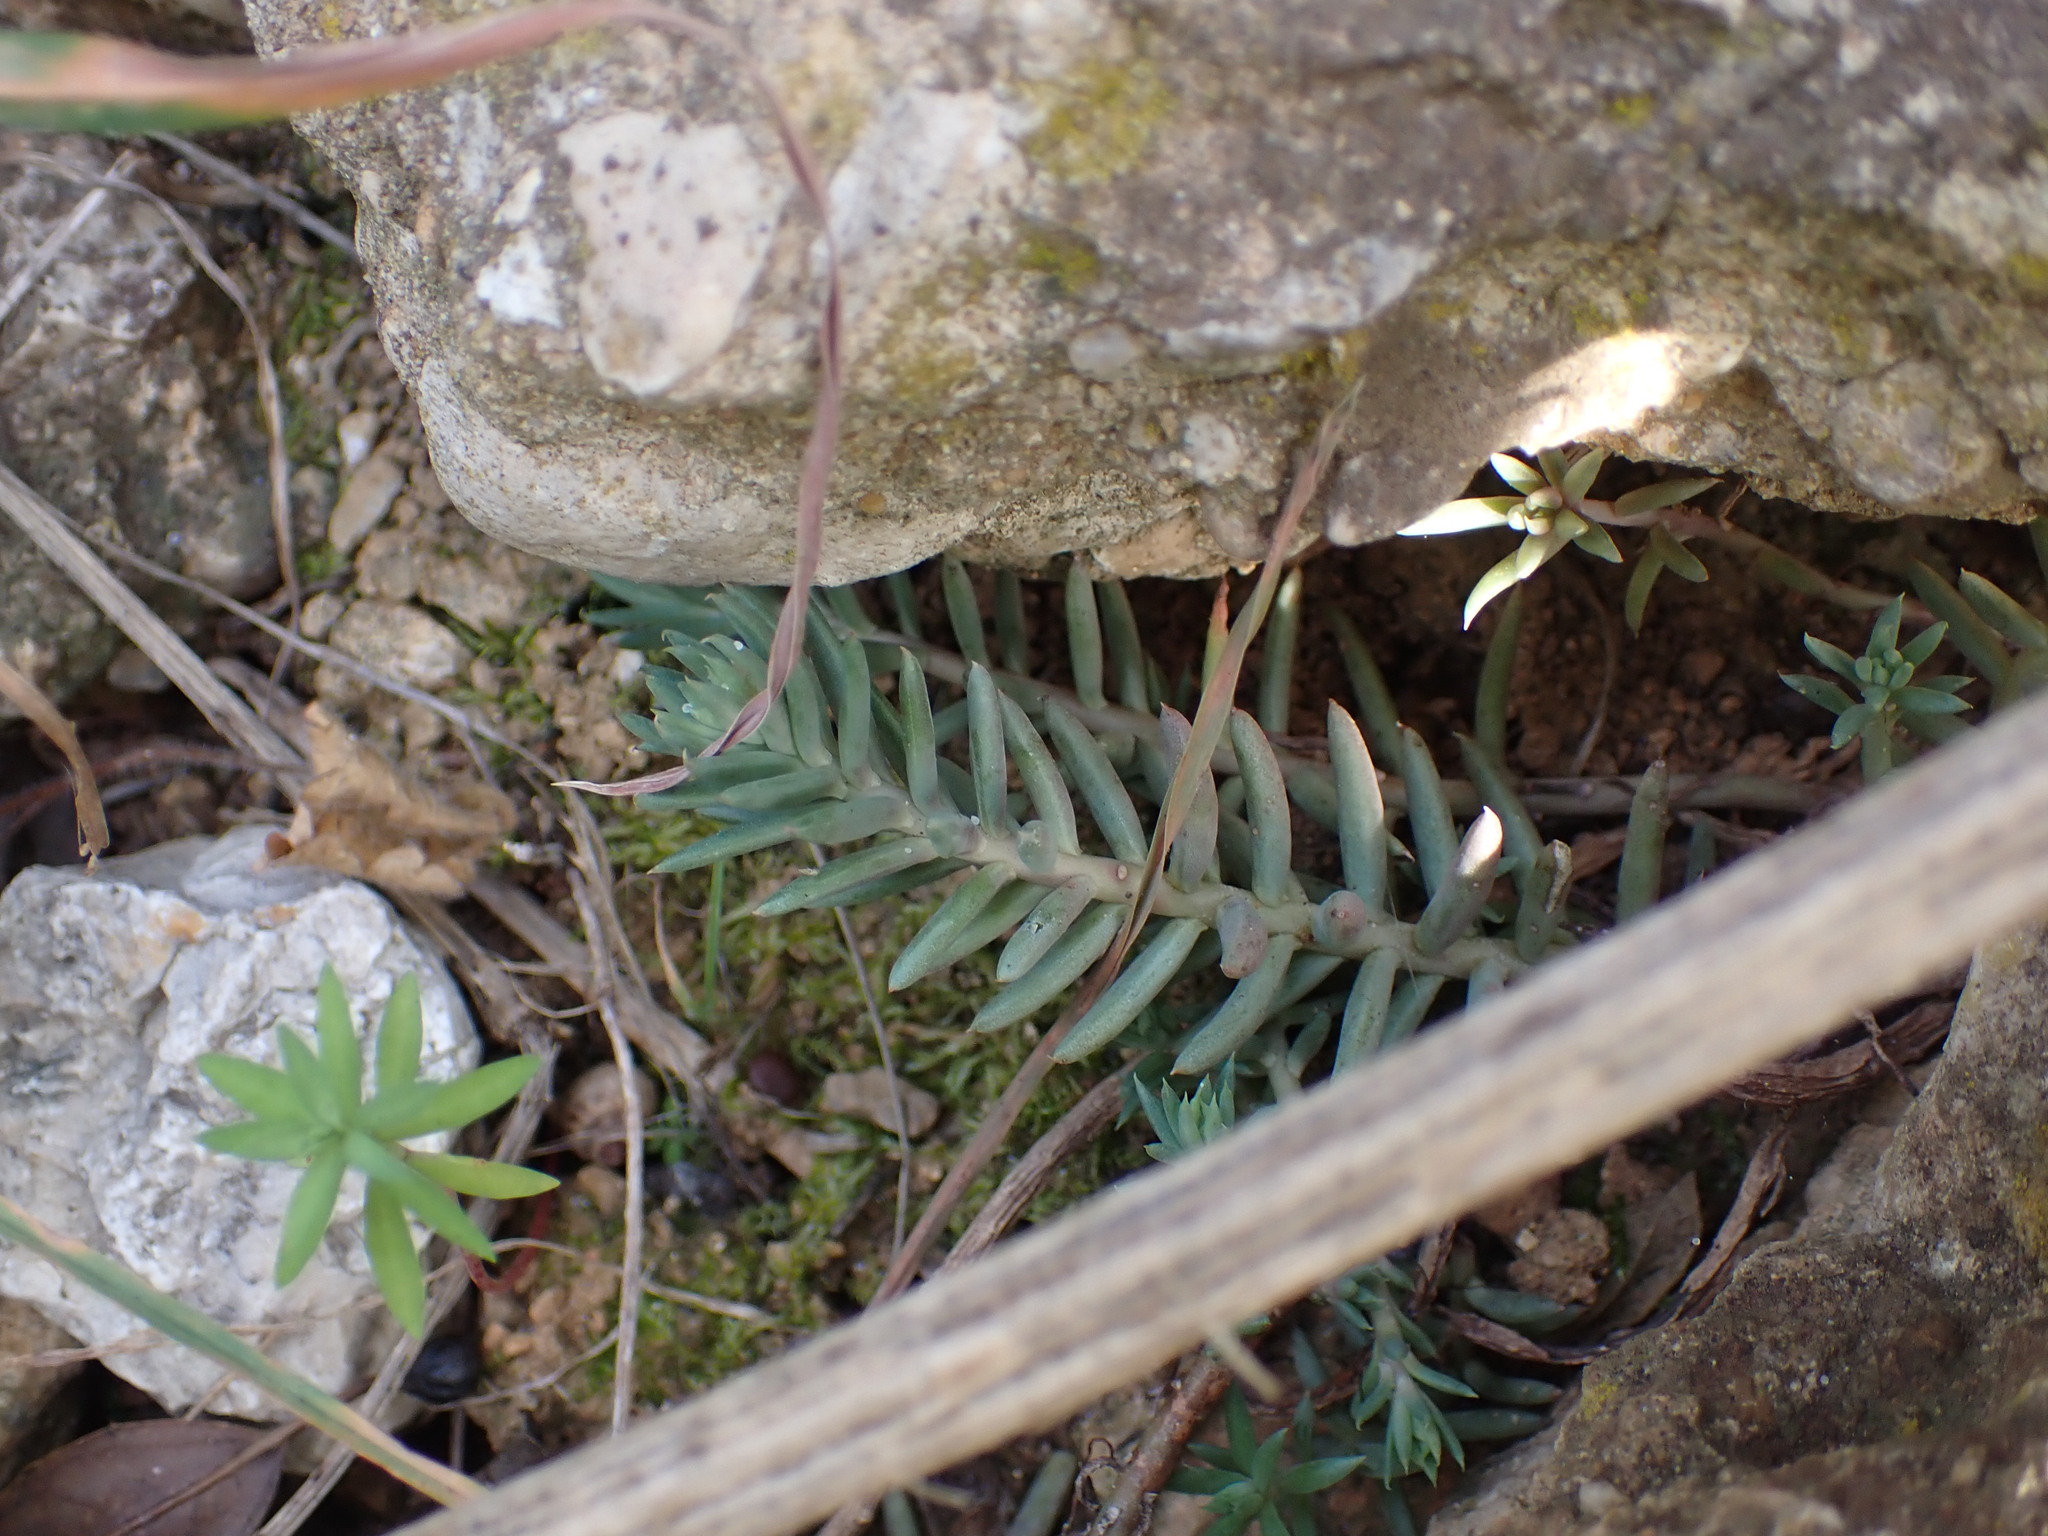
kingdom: Plantae
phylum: Tracheophyta
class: Magnoliopsida
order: Saxifragales
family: Crassulaceae
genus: Petrosedum
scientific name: Petrosedum sediforme
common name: Pale stonecrop
